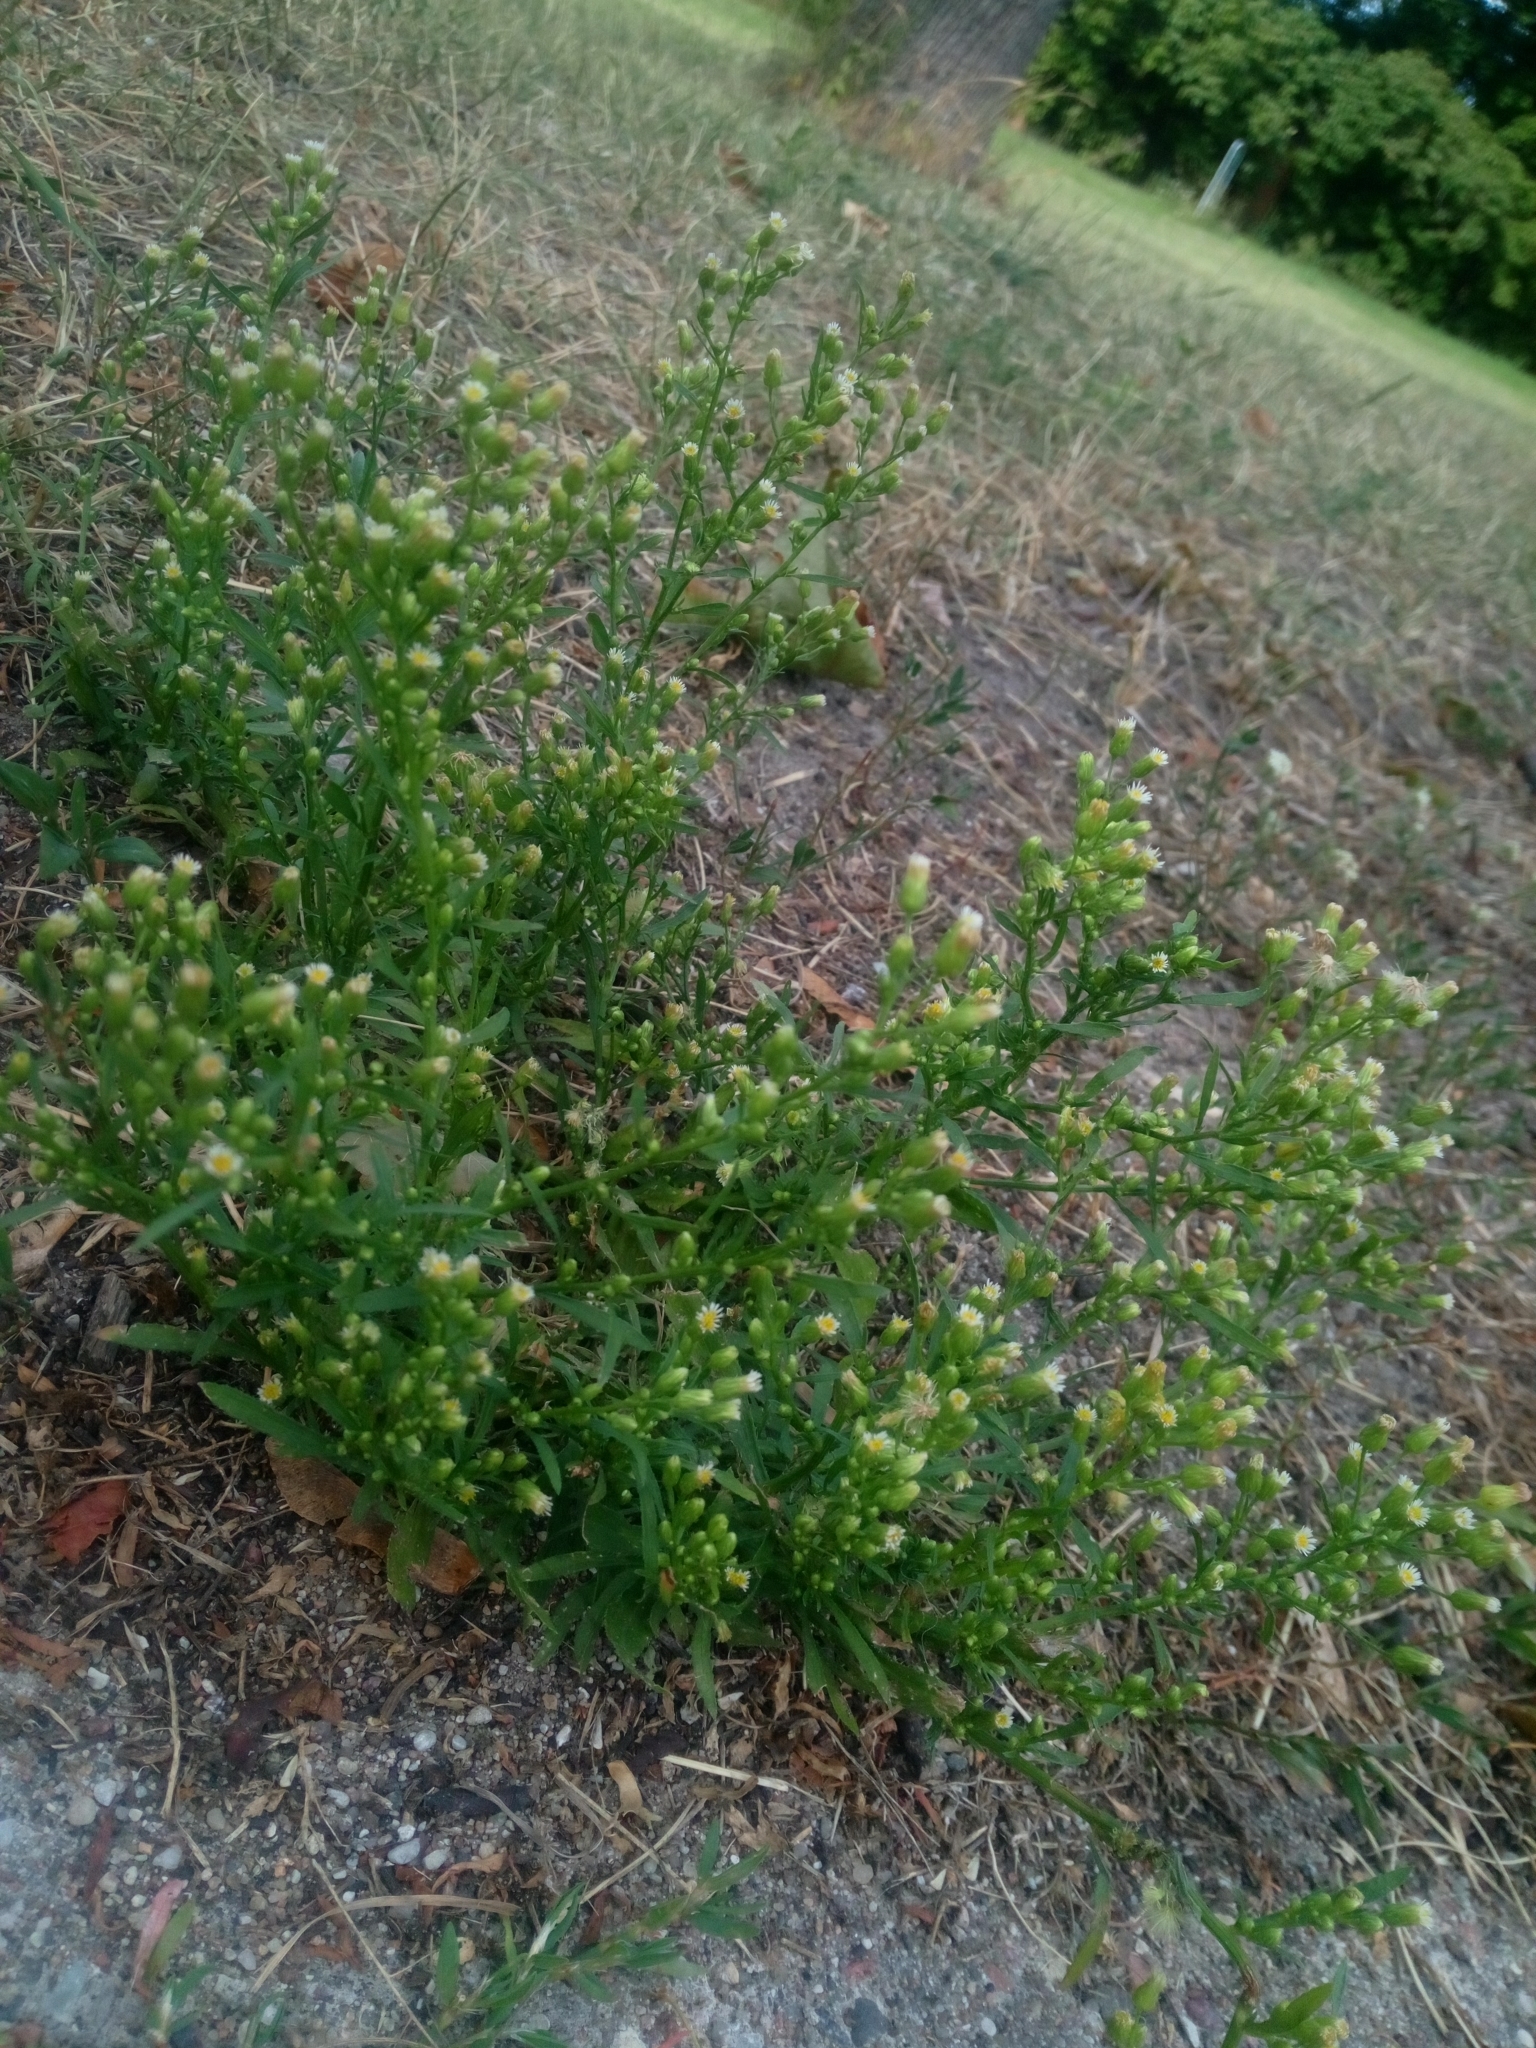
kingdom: Plantae
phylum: Tracheophyta
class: Magnoliopsida
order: Asterales
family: Asteraceae
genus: Erigeron
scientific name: Erigeron canadensis
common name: Canadian fleabane
